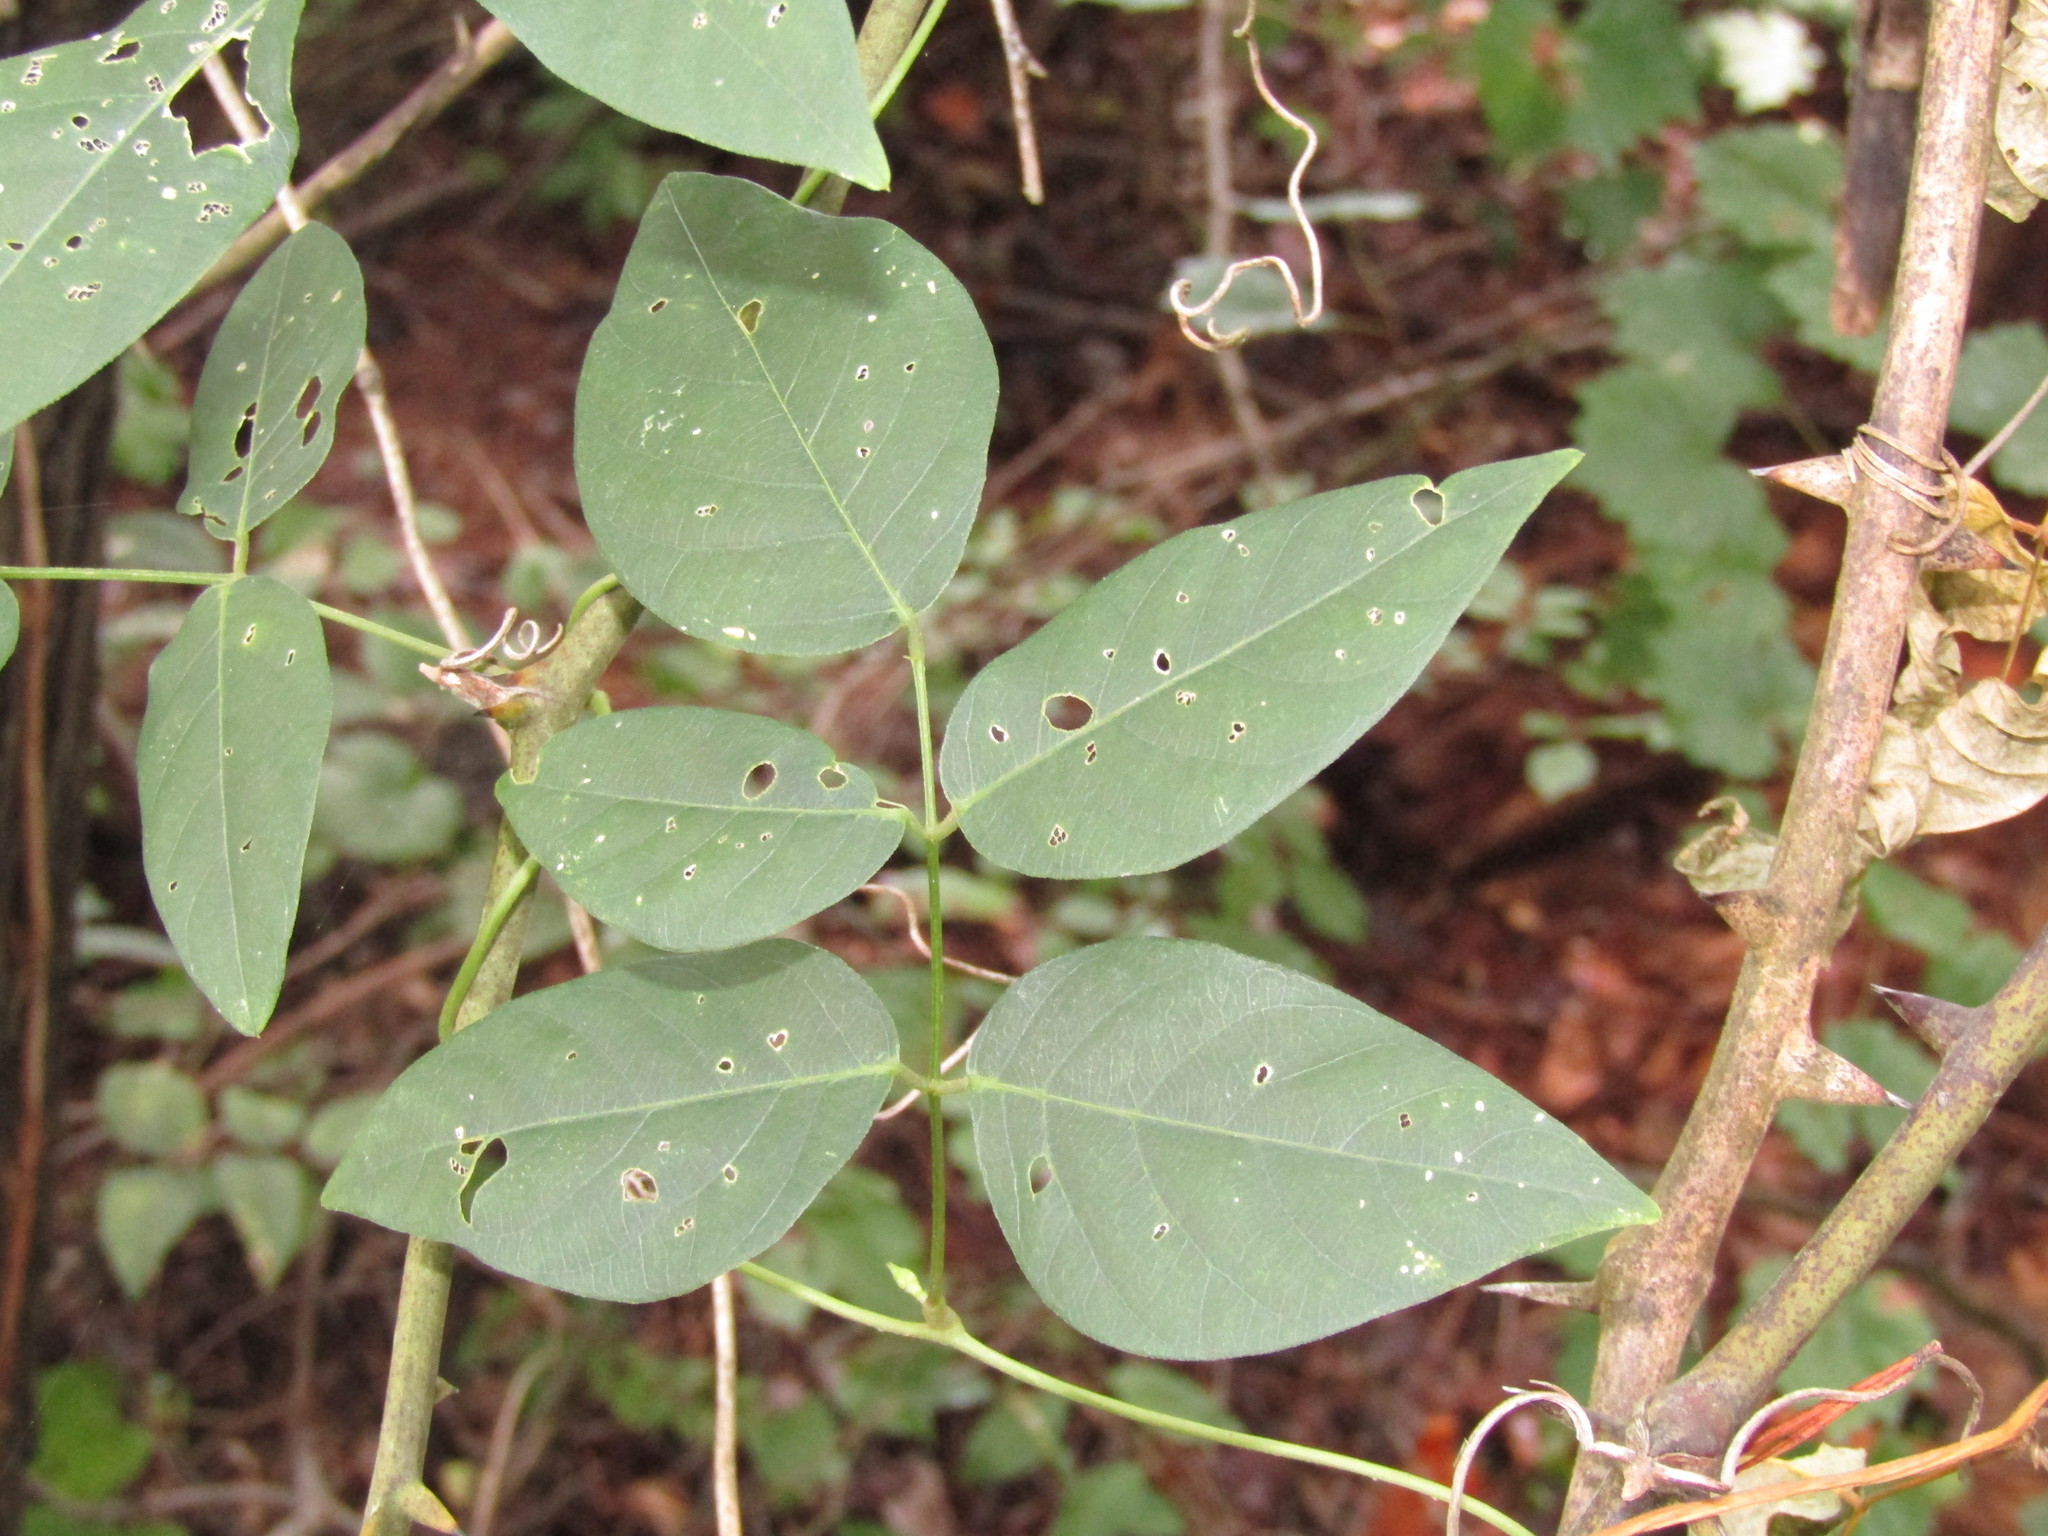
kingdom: Plantae
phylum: Tracheophyta
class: Magnoliopsida
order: Fabales
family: Fabaceae
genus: Apios
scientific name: Apios americana
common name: American potato-bean
